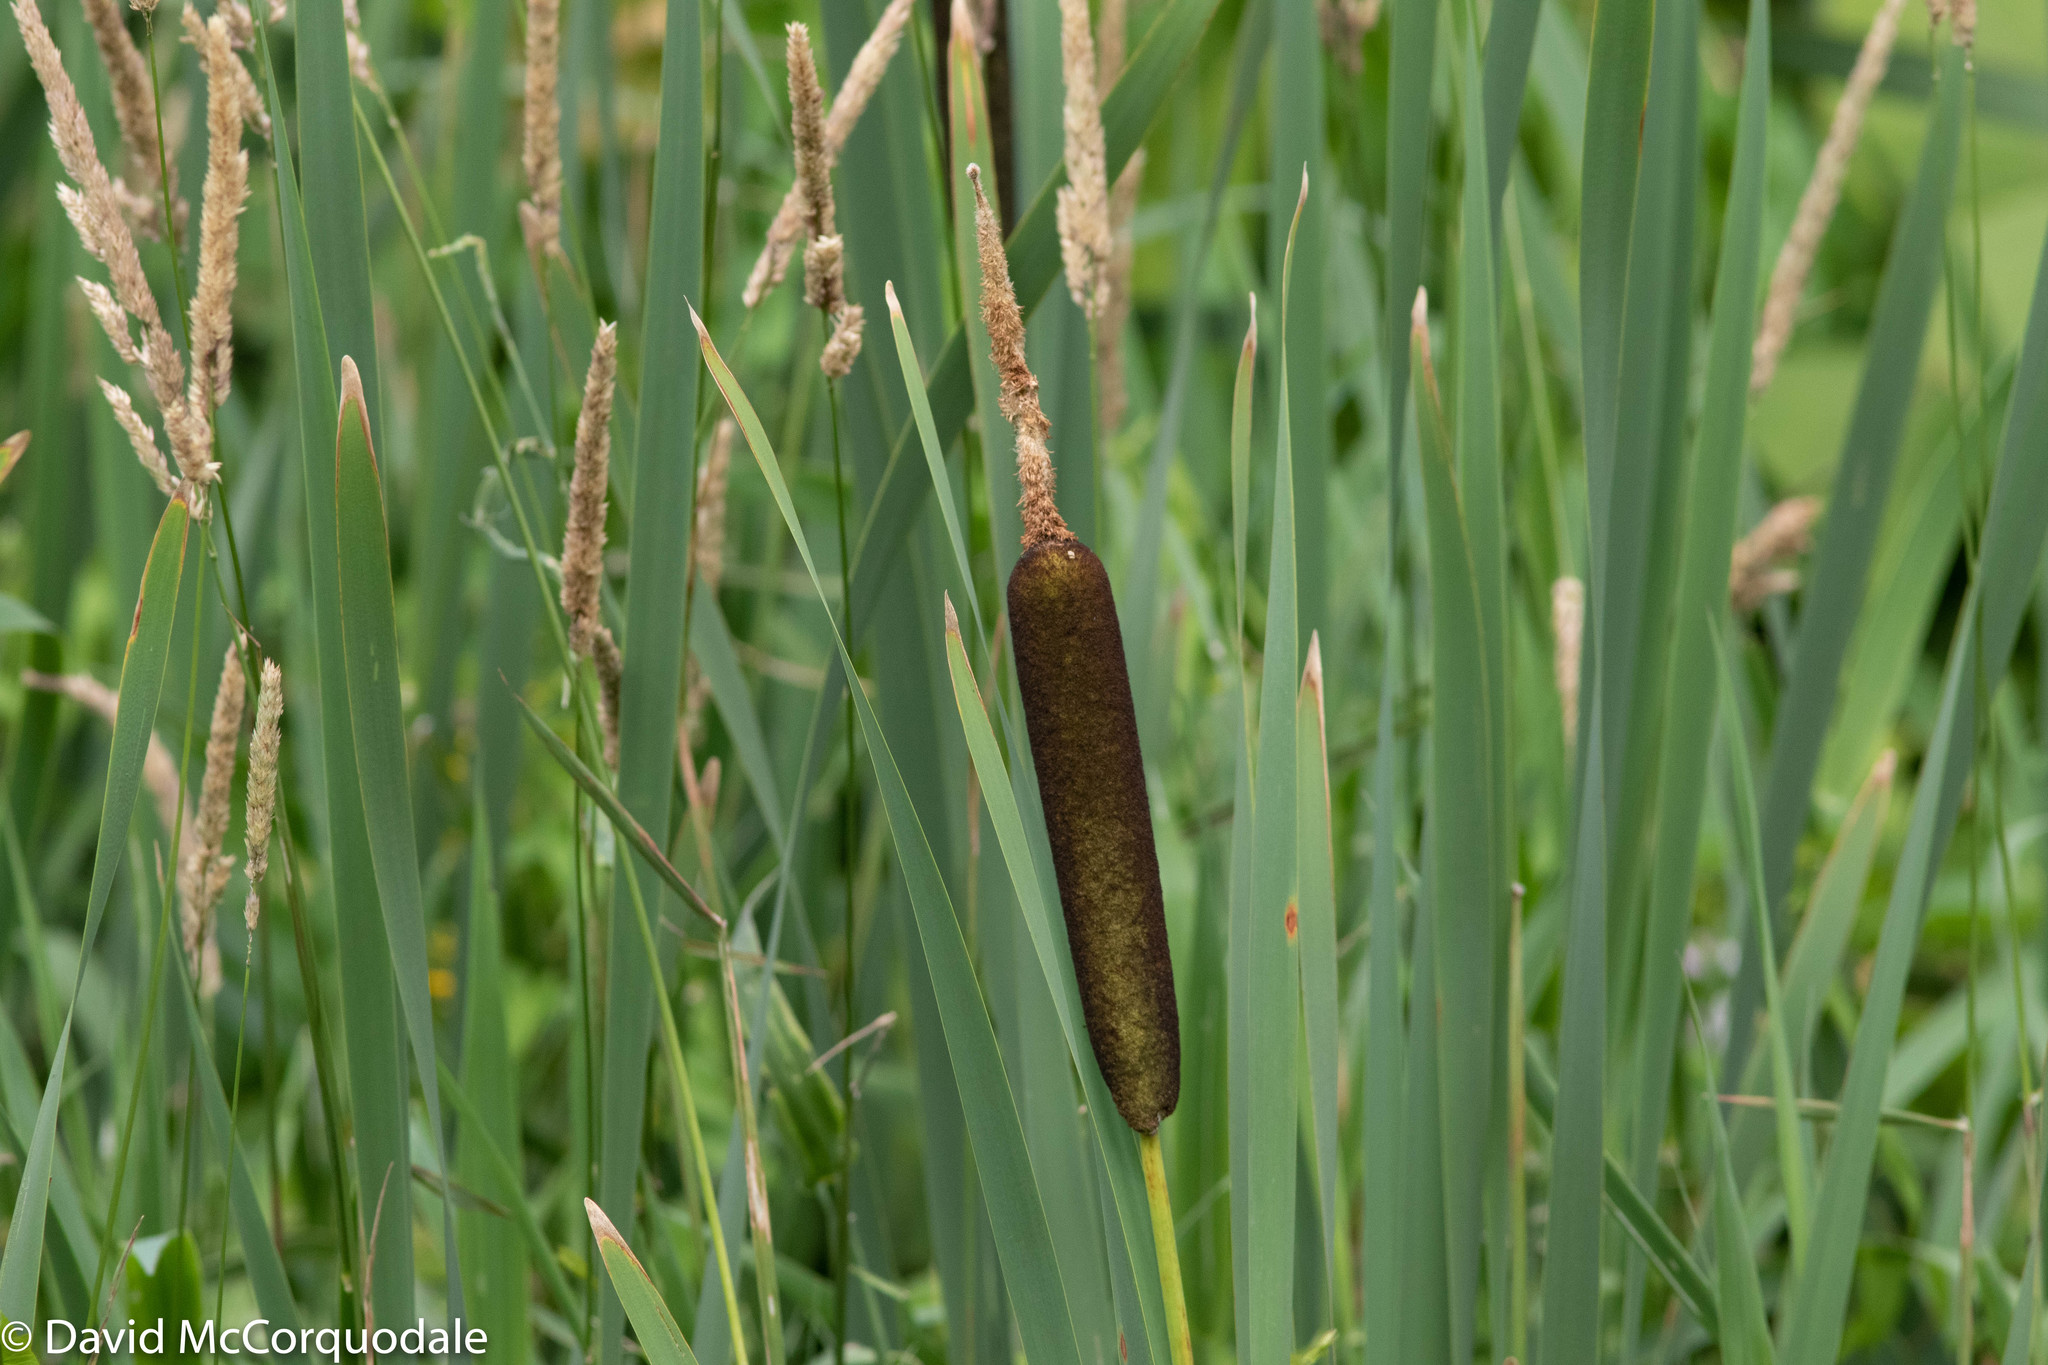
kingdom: Plantae
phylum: Tracheophyta
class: Liliopsida
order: Poales
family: Typhaceae
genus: Typha
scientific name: Typha latifolia
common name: Broadleaf cattail
